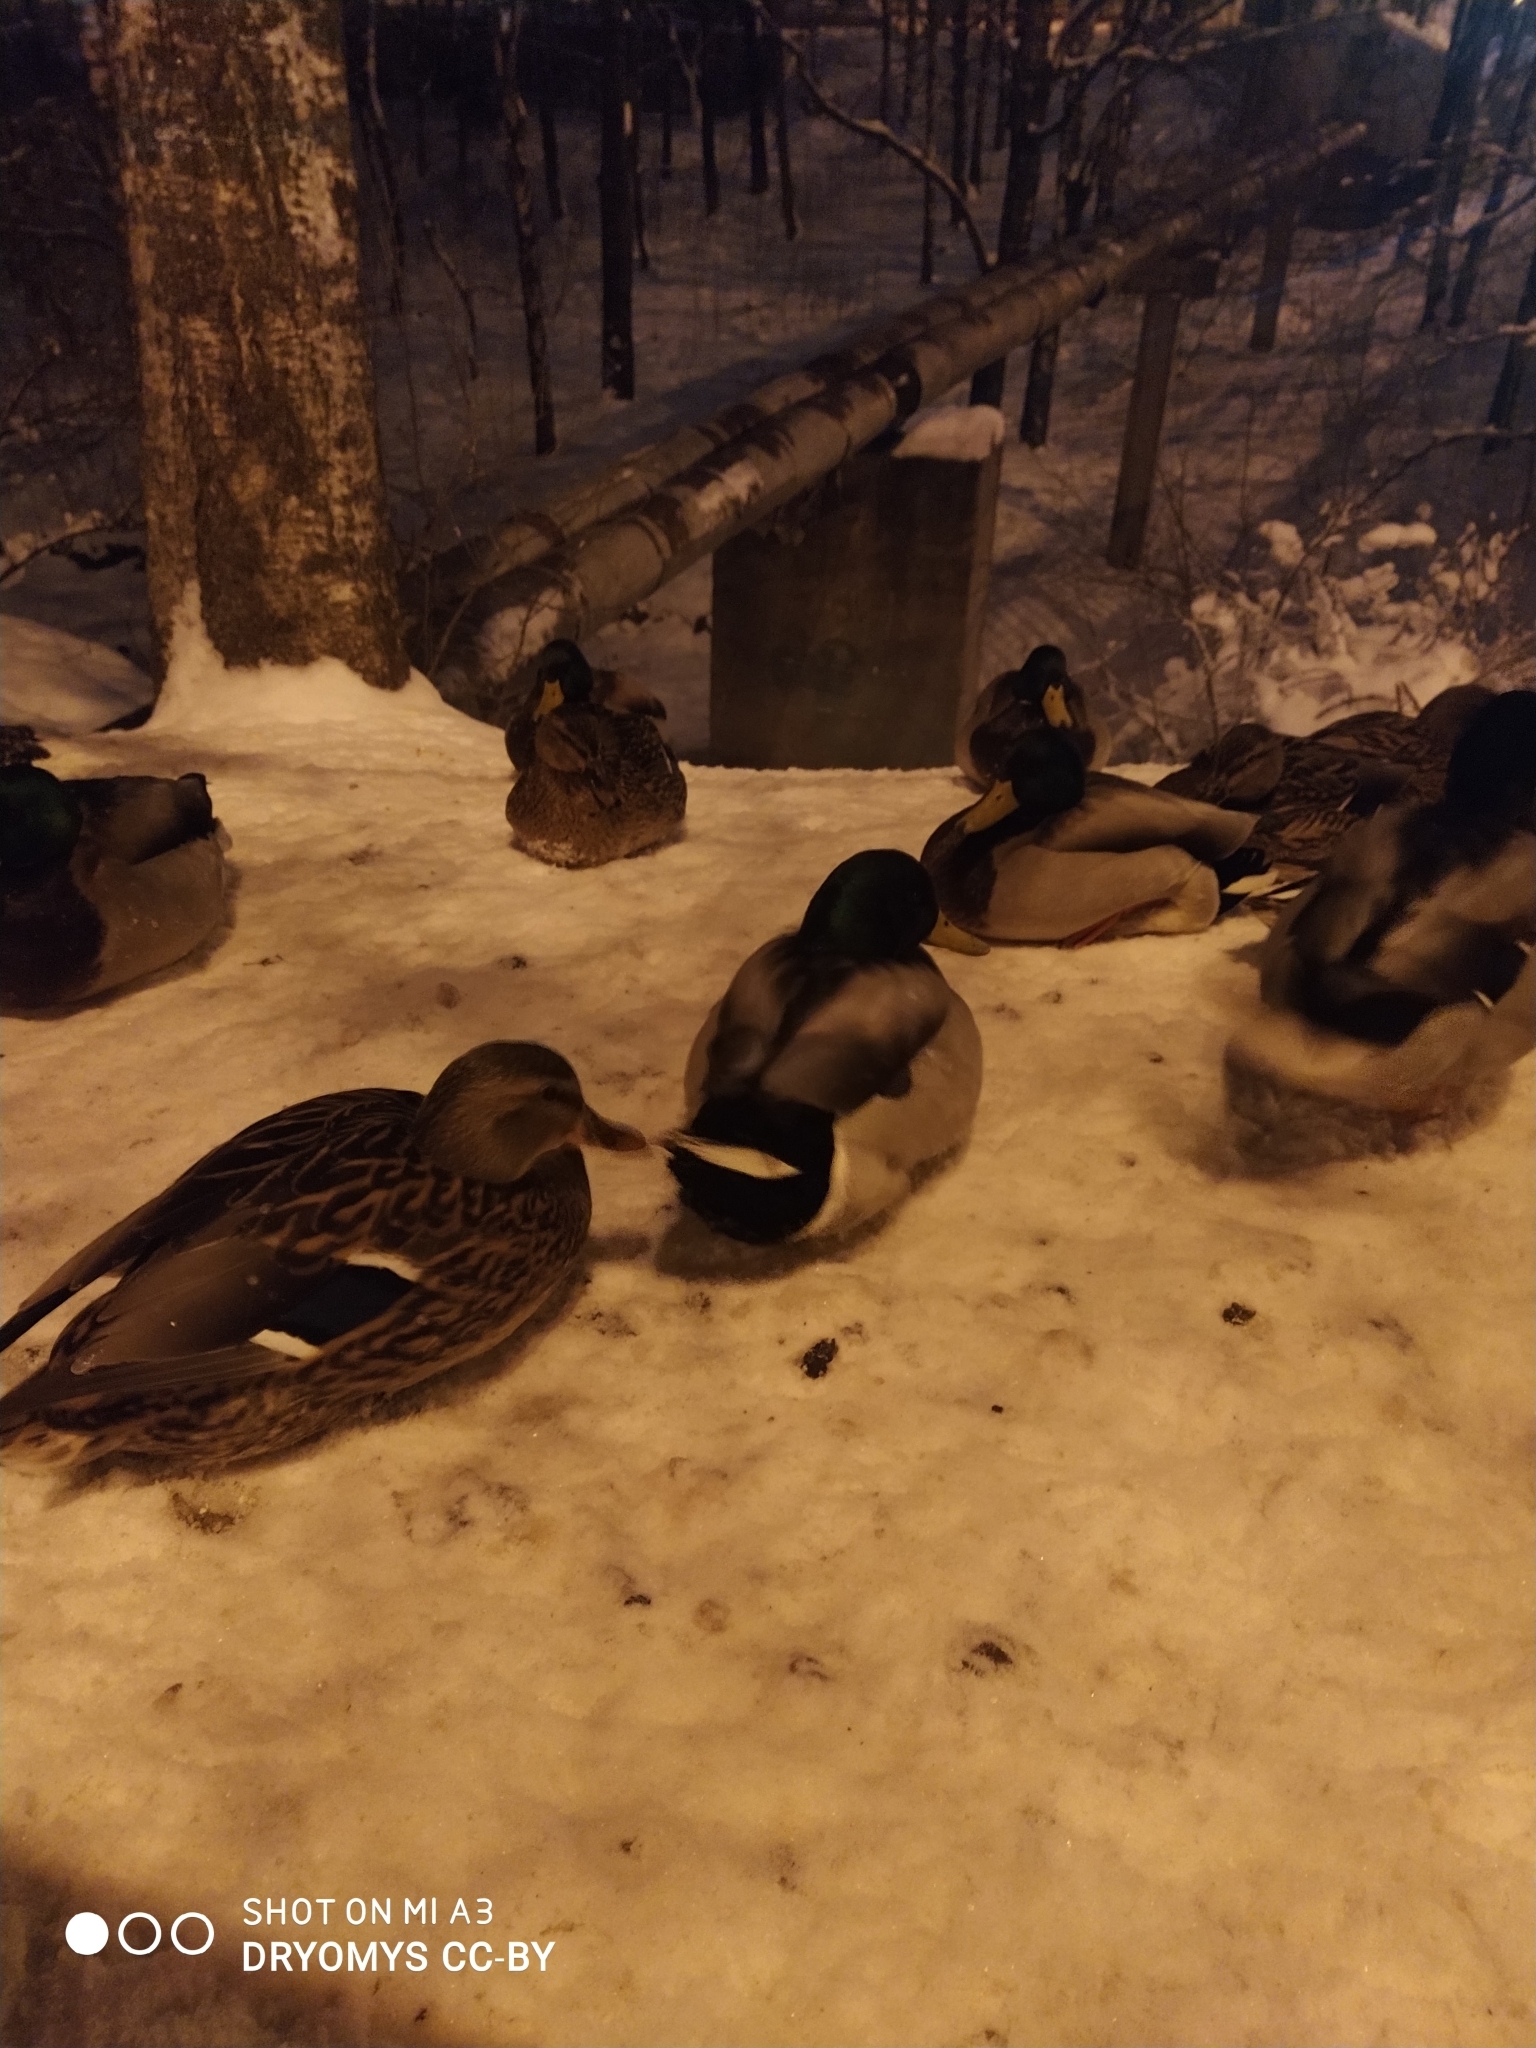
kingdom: Animalia
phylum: Chordata
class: Aves
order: Anseriformes
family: Anatidae
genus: Anas
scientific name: Anas platyrhynchos
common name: Mallard
